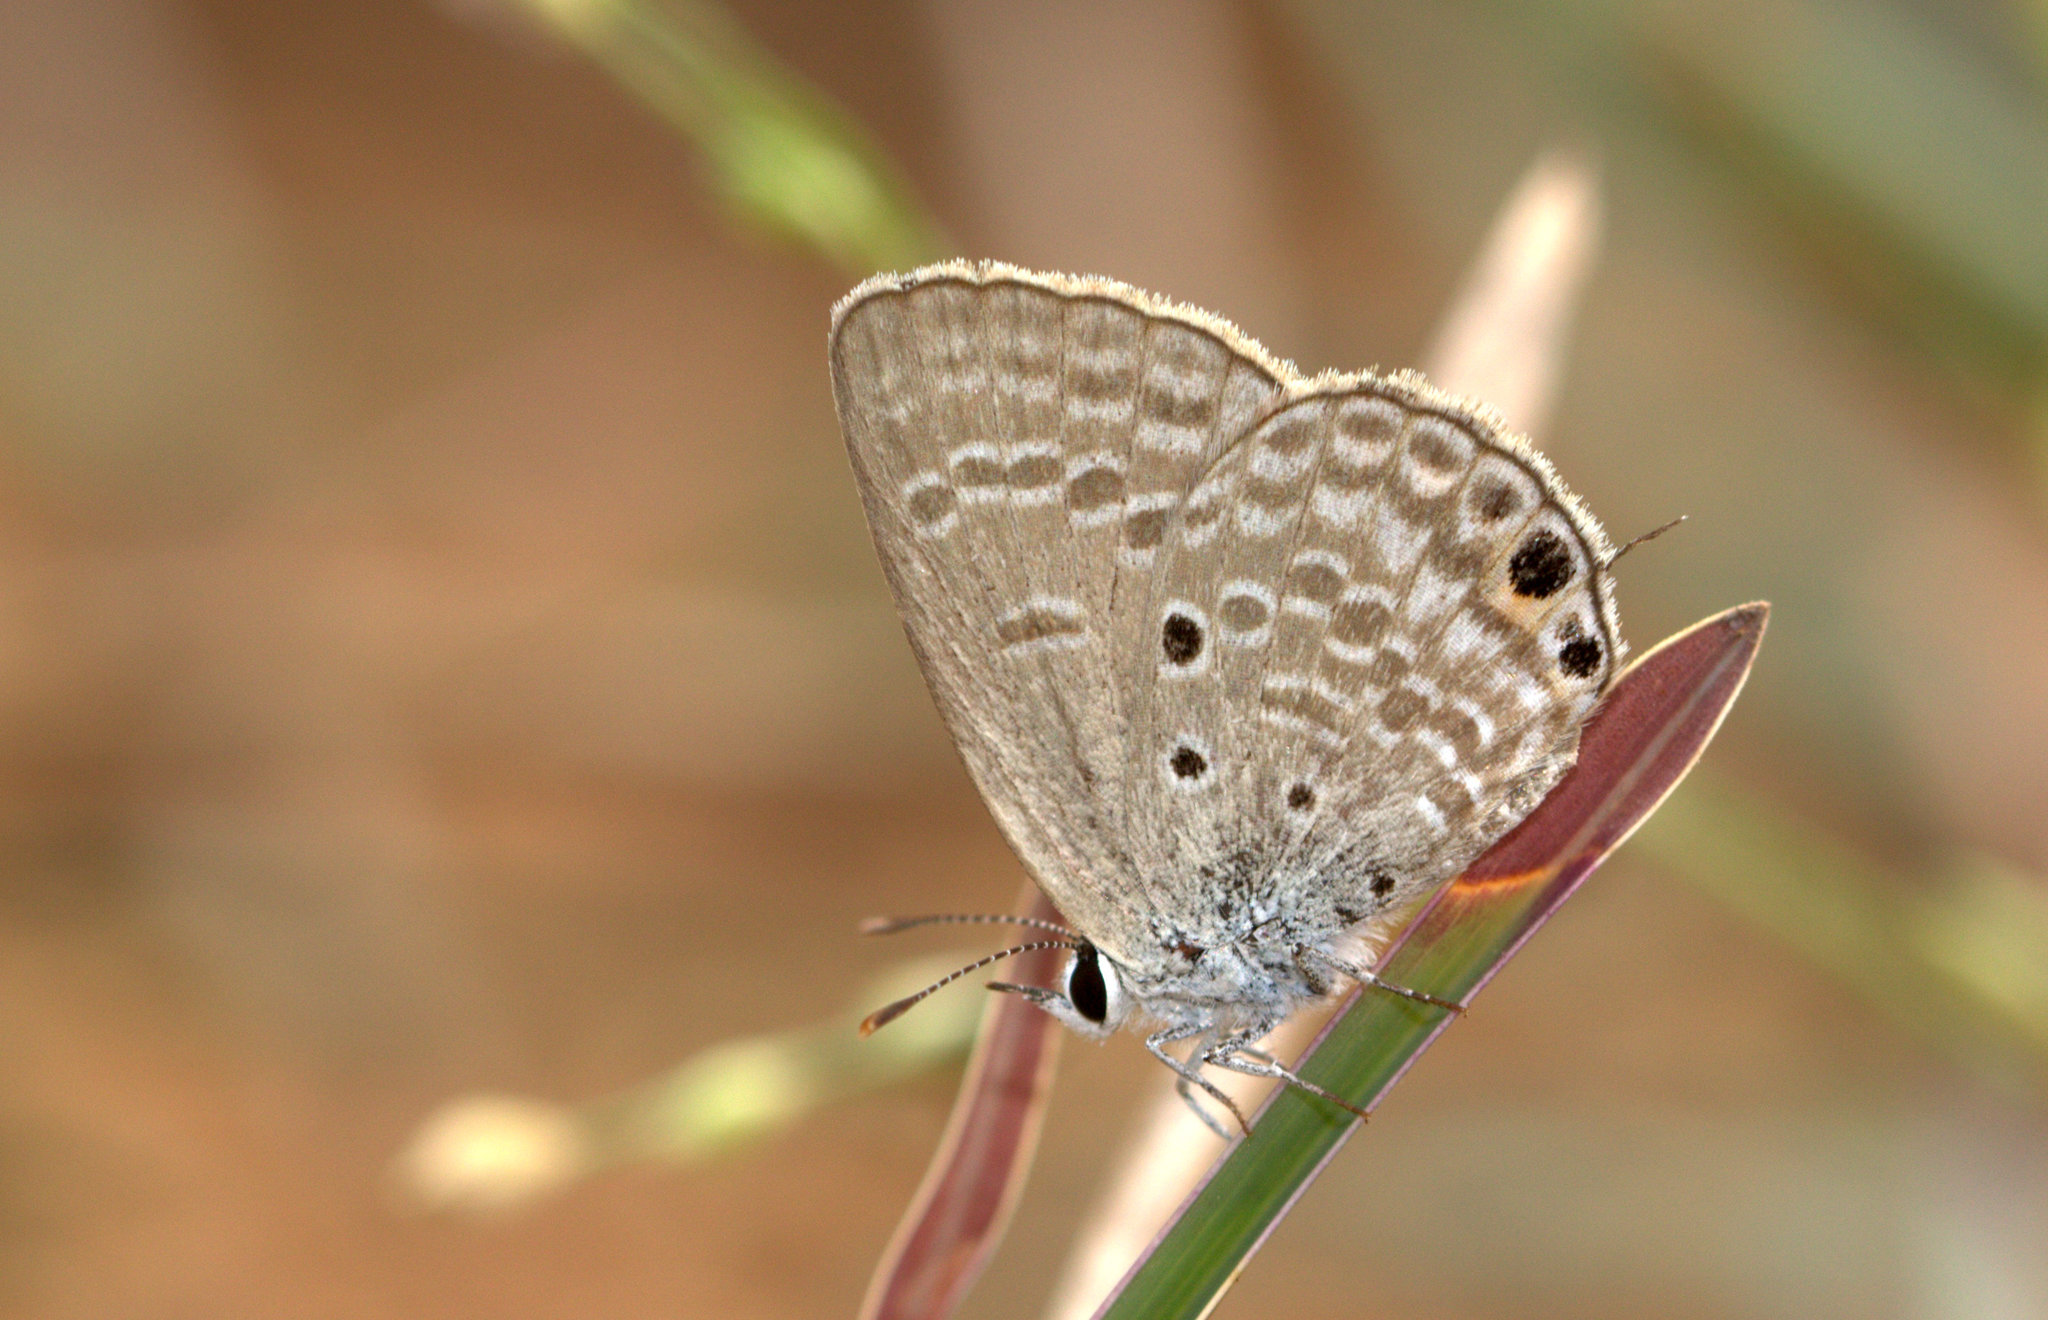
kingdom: Animalia
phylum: Arthropoda
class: Insecta
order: Lepidoptera
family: Lycaenidae
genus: Euchrysops
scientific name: Euchrysops cnejus
